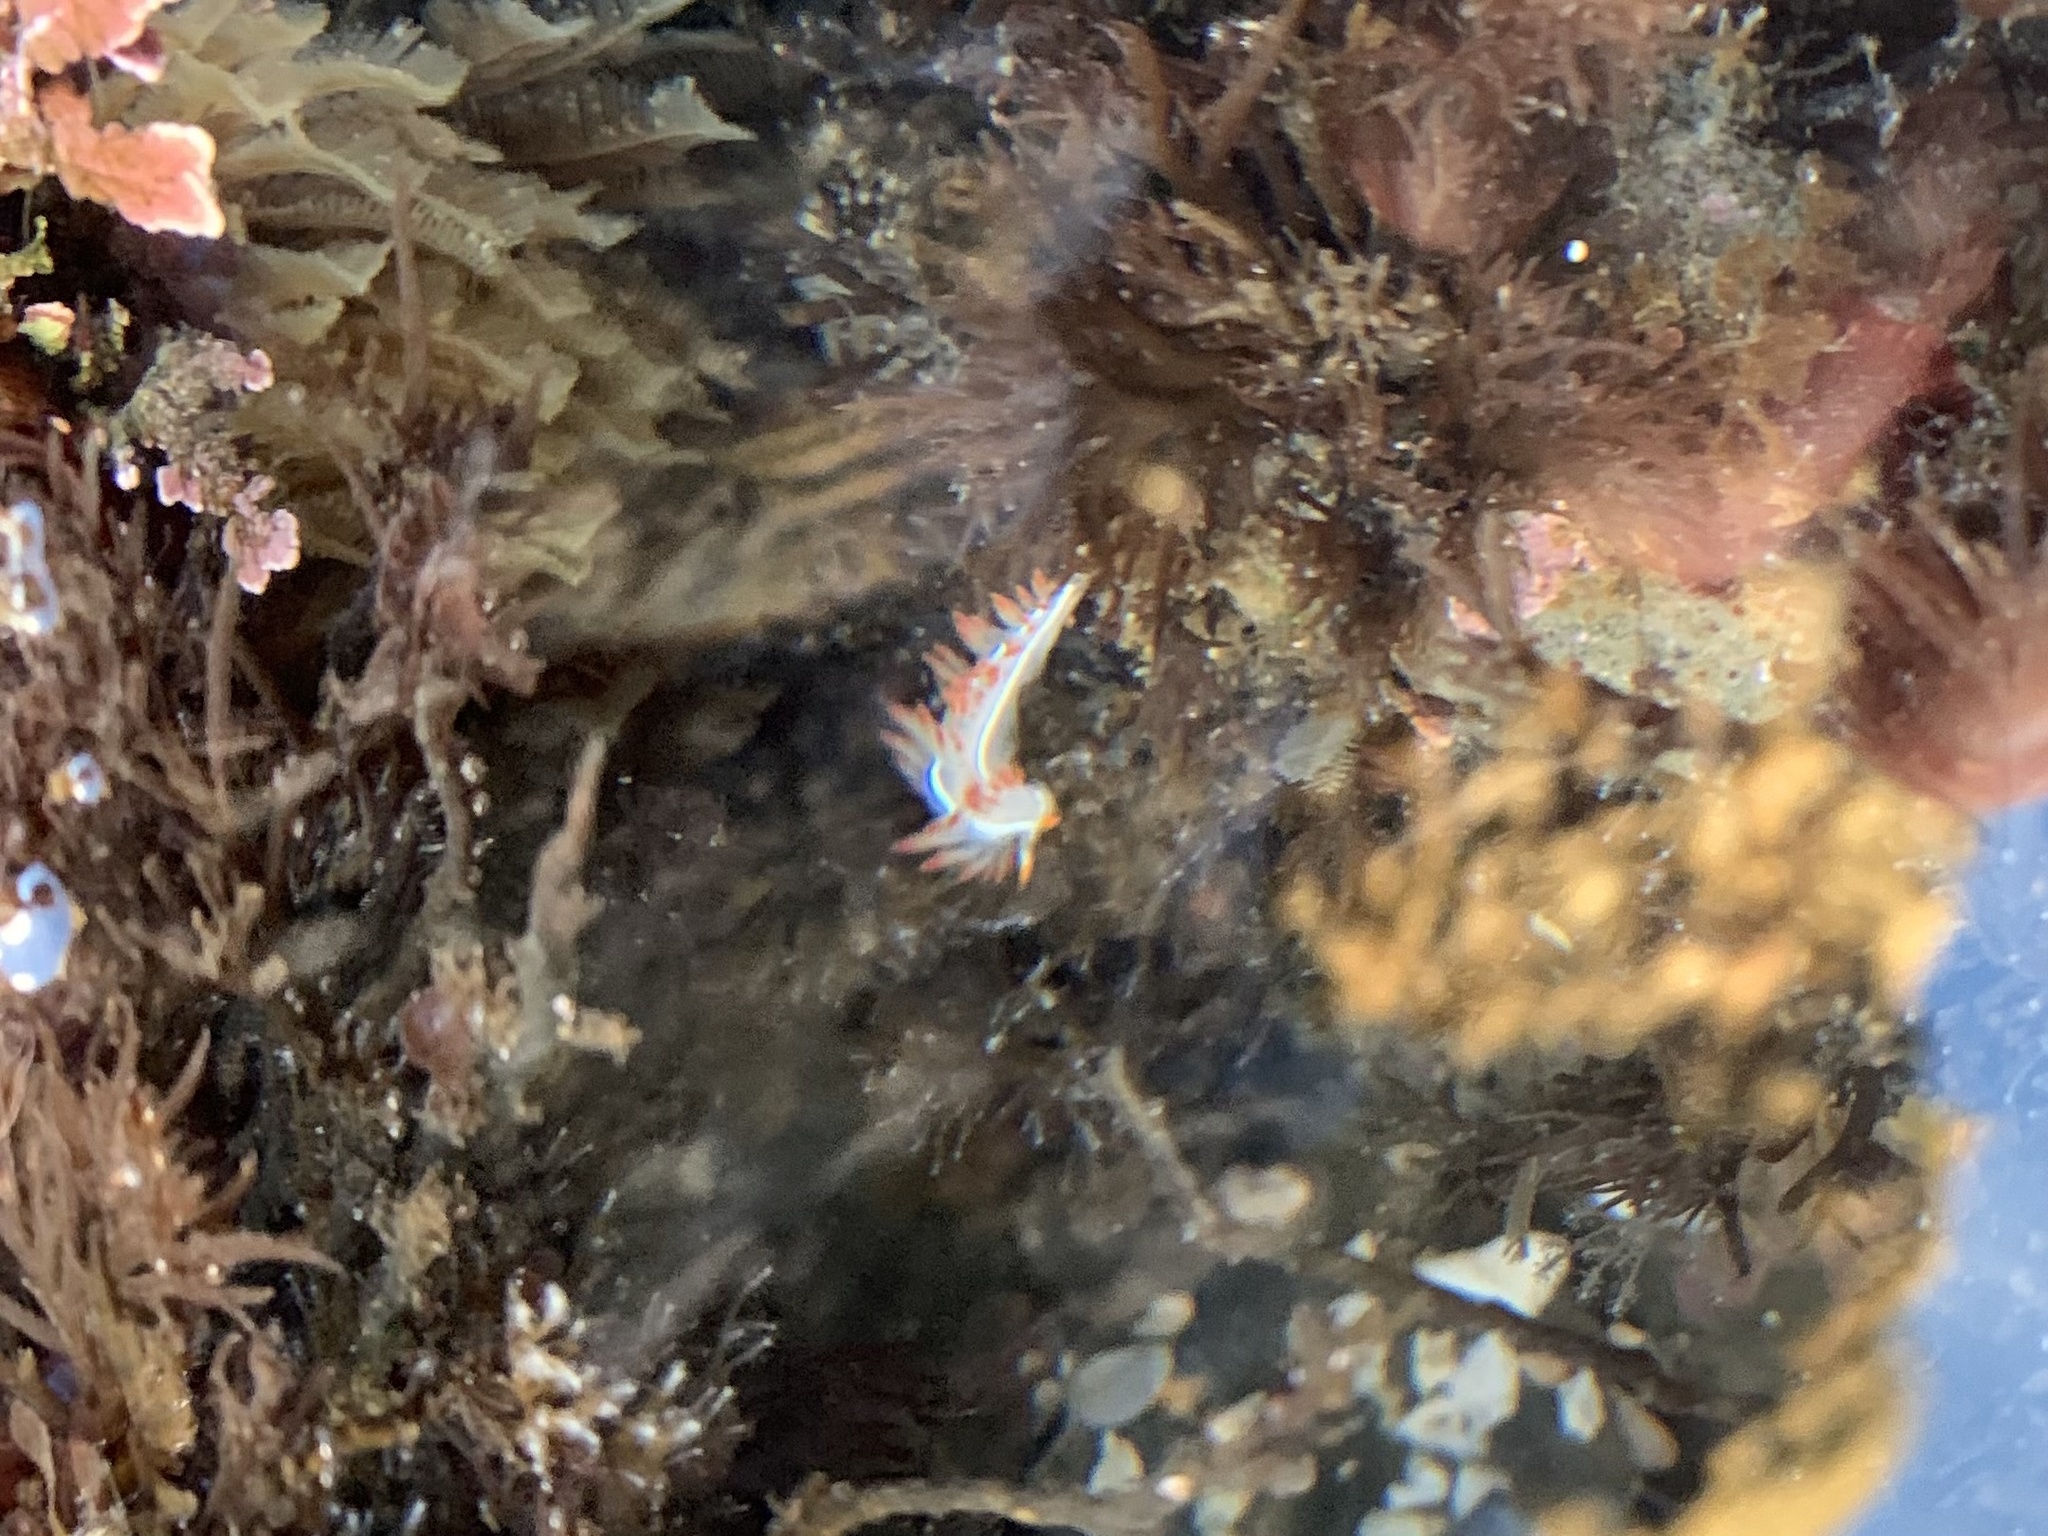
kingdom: Animalia
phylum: Mollusca
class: Gastropoda
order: Nudibranchia
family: Coryphellidae
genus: Coryphella
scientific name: Coryphella trilineata
